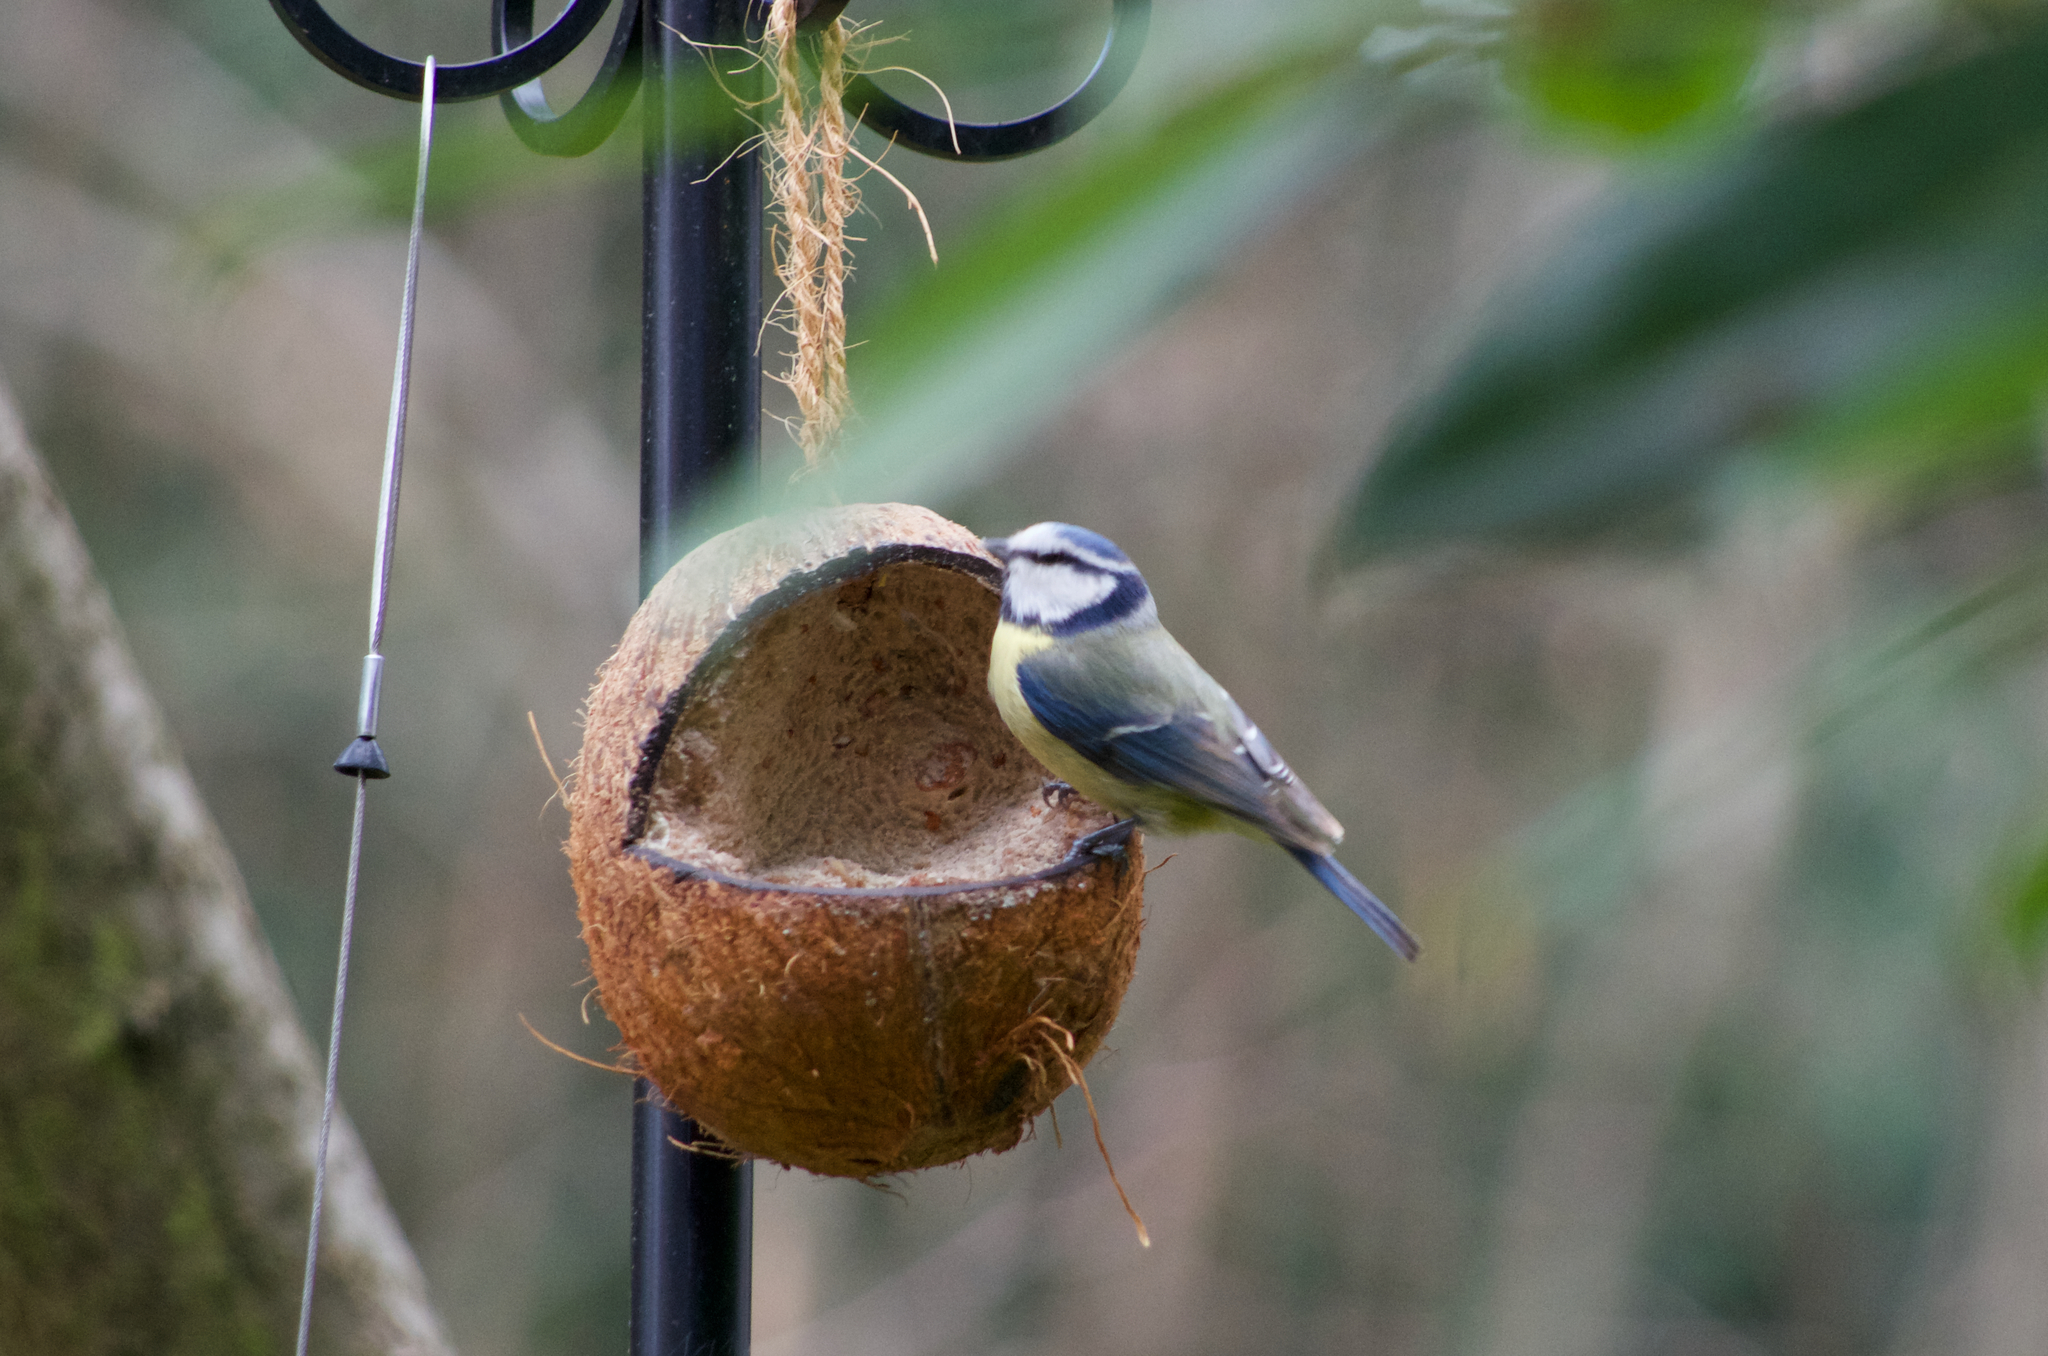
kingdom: Animalia
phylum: Chordata
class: Aves
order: Passeriformes
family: Paridae
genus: Cyanistes
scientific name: Cyanistes caeruleus
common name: Eurasian blue tit
